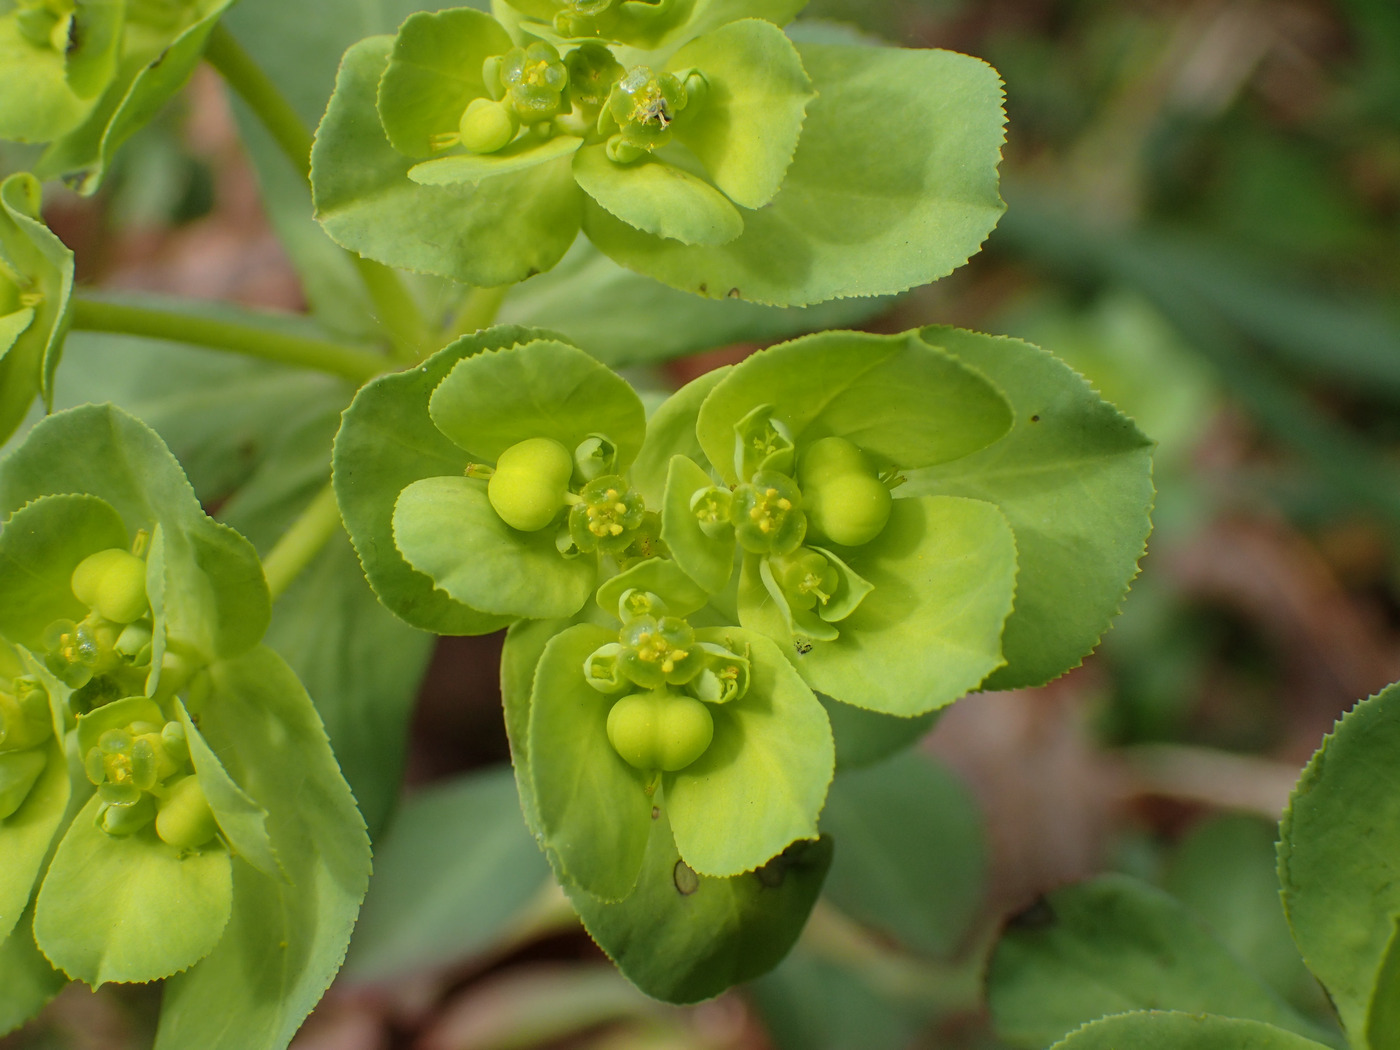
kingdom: Plantae
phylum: Tracheophyta
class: Magnoliopsida
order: Malpighiales
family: Euphorbiaceae
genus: Euphorbia
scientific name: Euphorbia helioscopia
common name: Sun spurge
